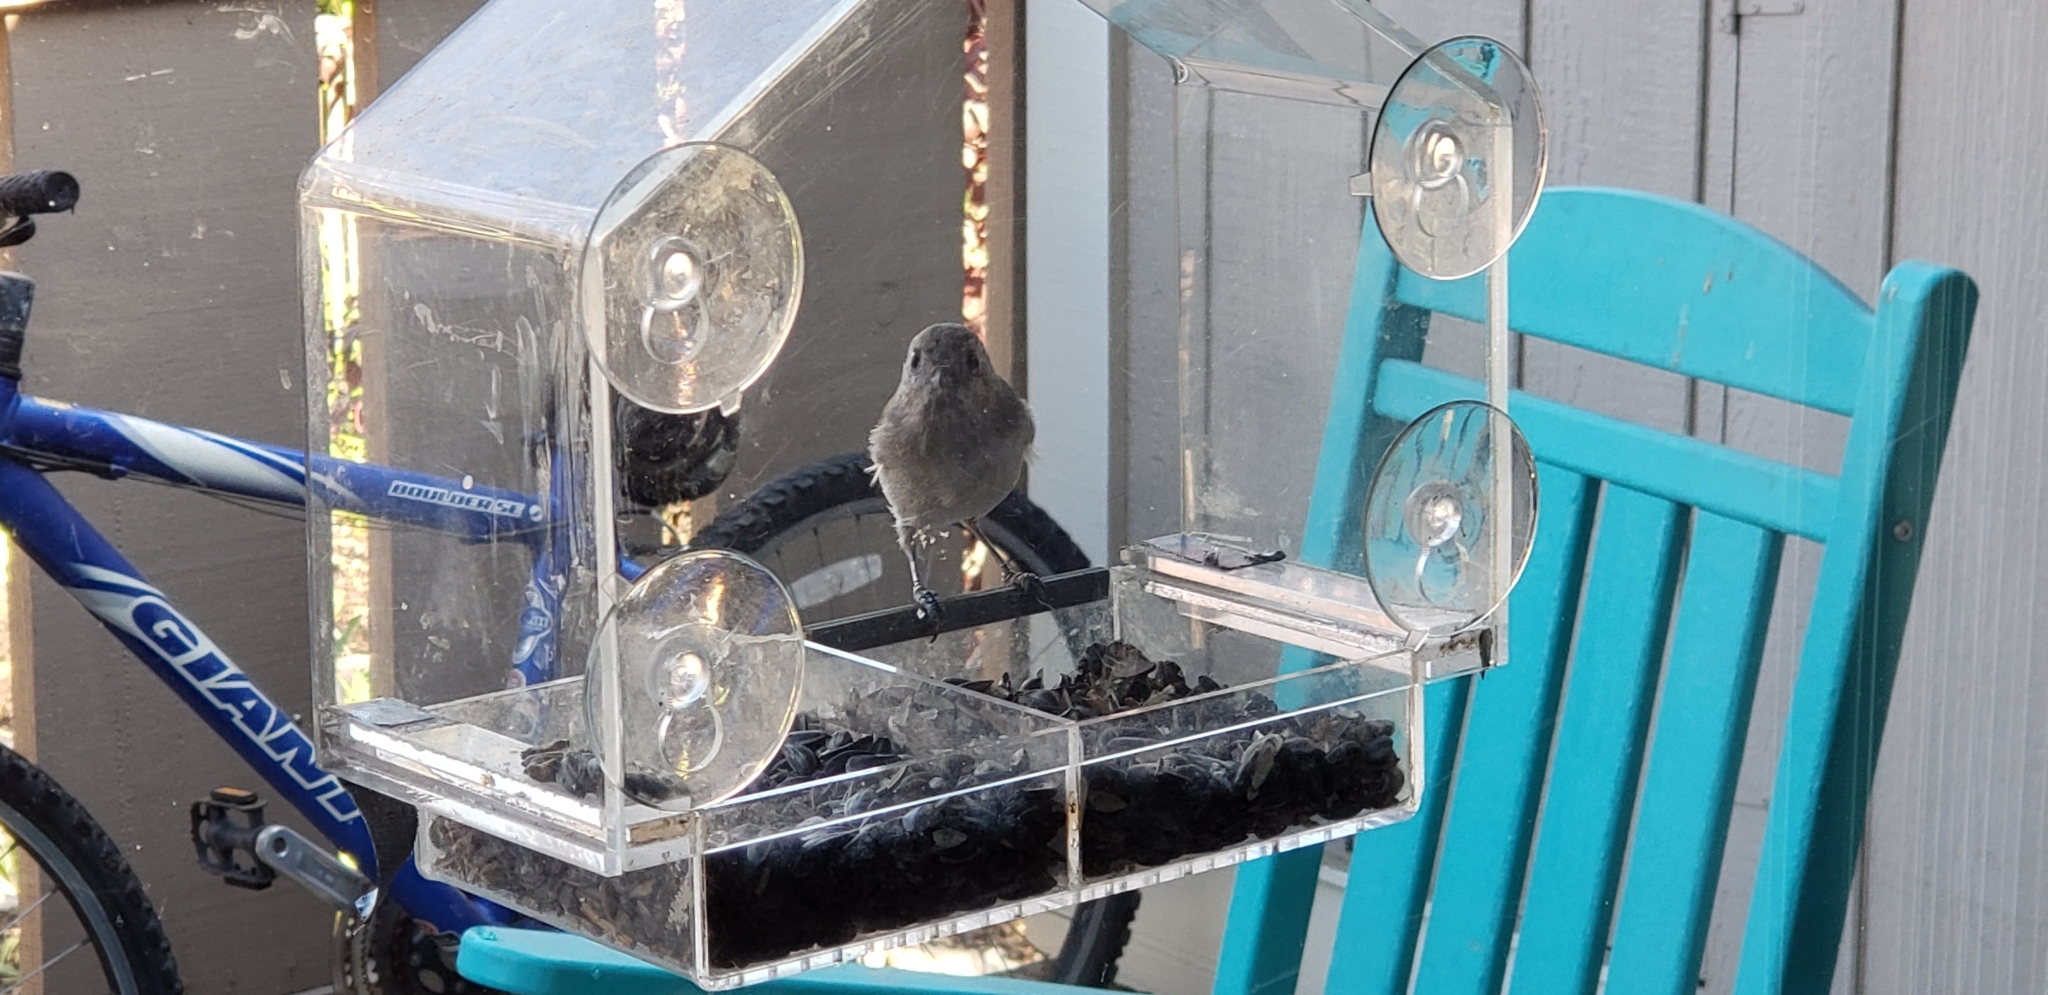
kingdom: Animalia
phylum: Chordata
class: Aves
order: Passeriformes
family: Paridae
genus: Baeolophus
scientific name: Baeolophus inornatus
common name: Oak titmouse
